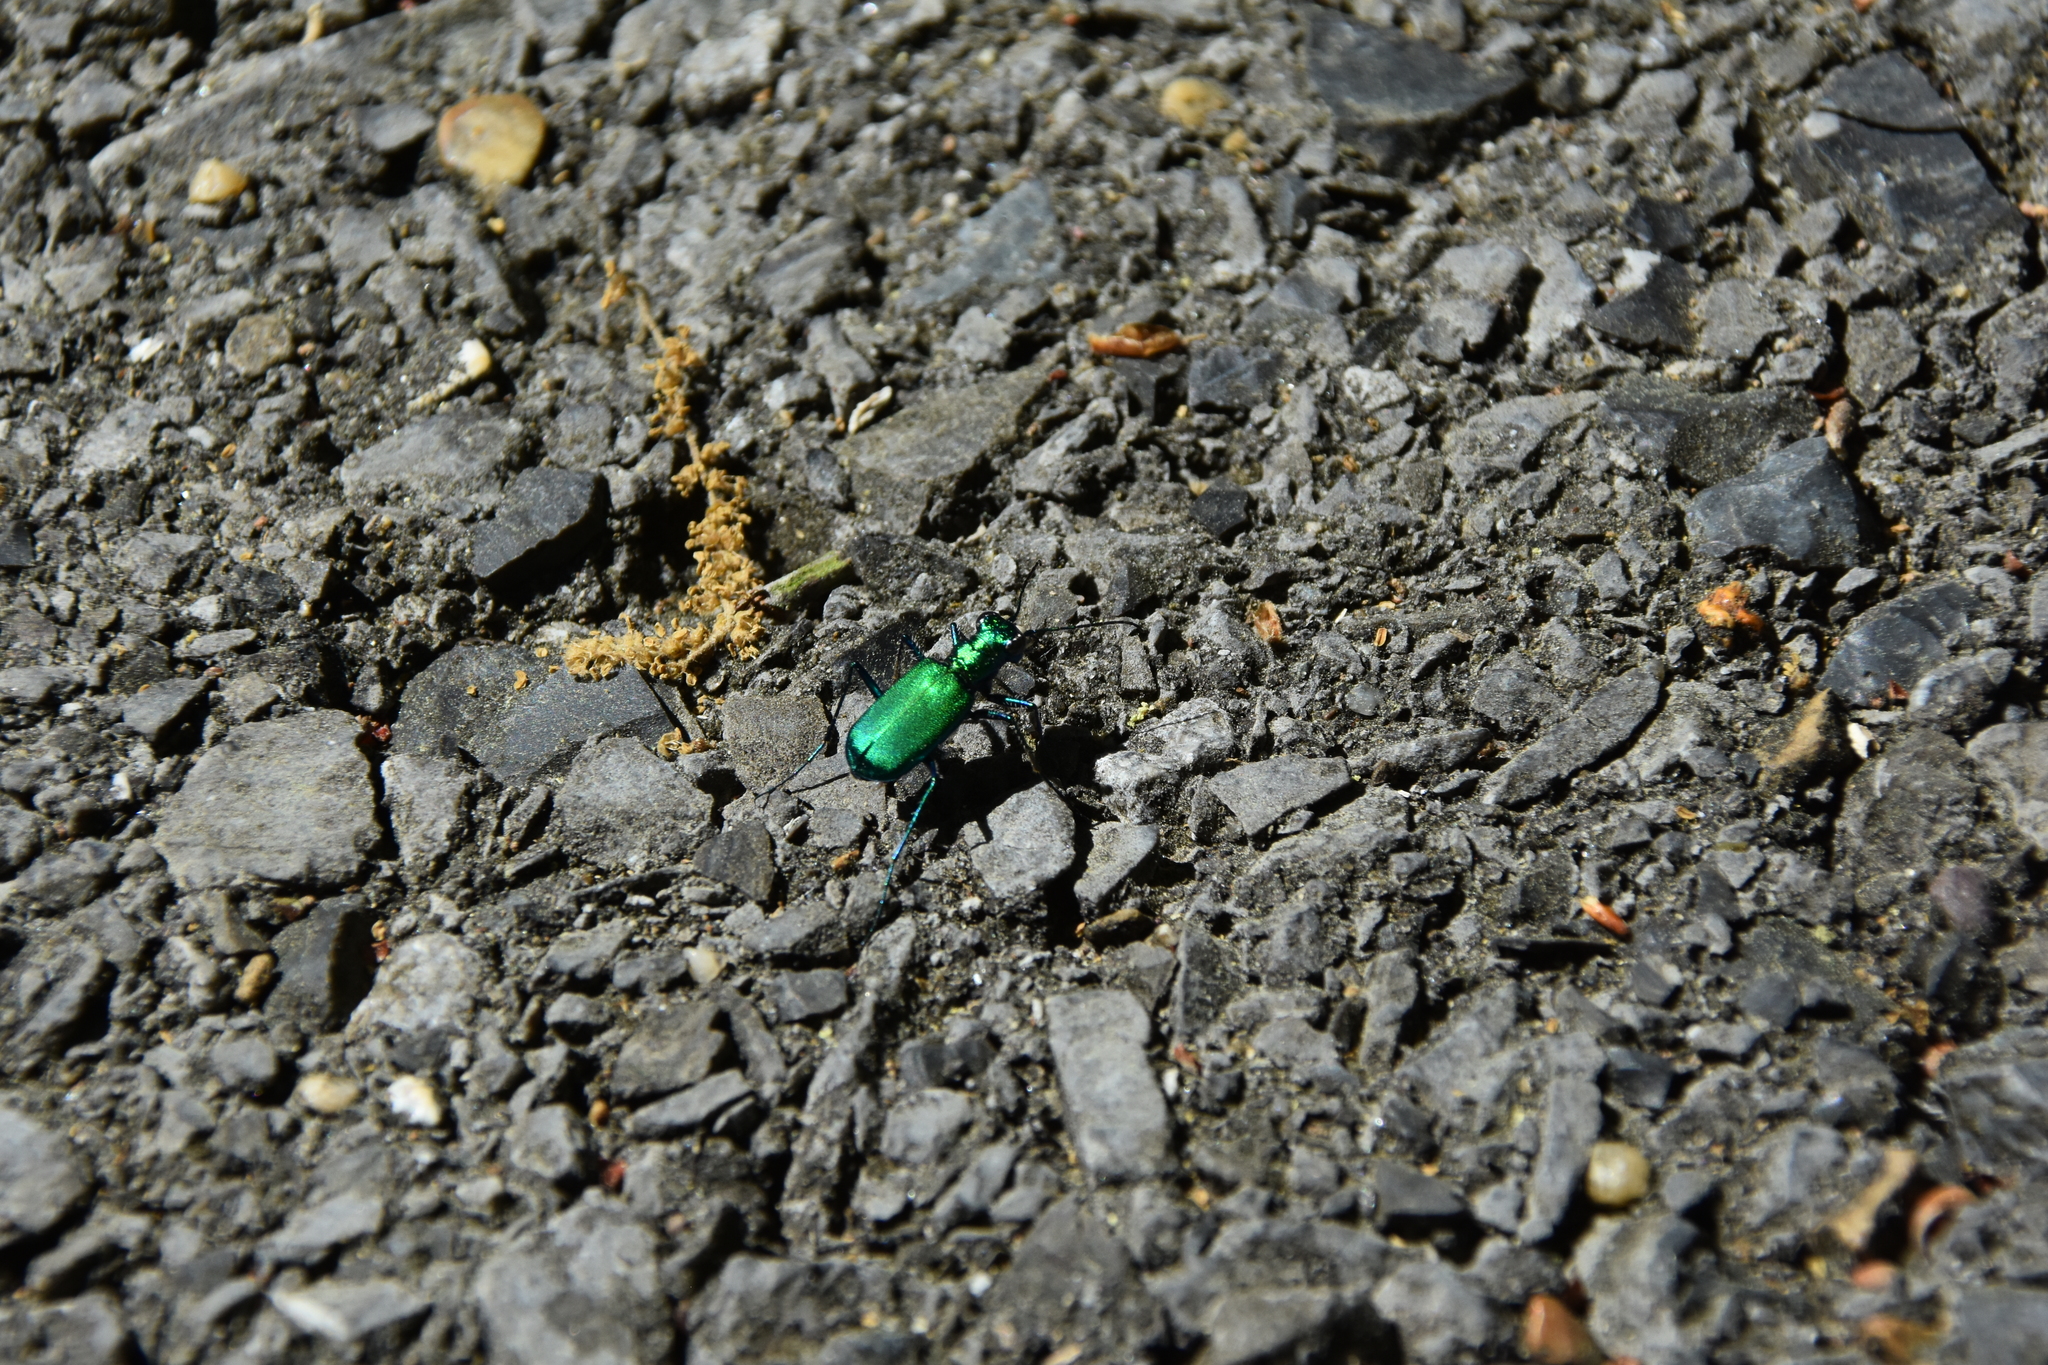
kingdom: Animalia
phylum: Arthropoda
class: Insecta
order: Coleoptera
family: Carabidae
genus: Cicindela
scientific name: Cicindela sexguttata
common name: Six-spotted tiger beetle
